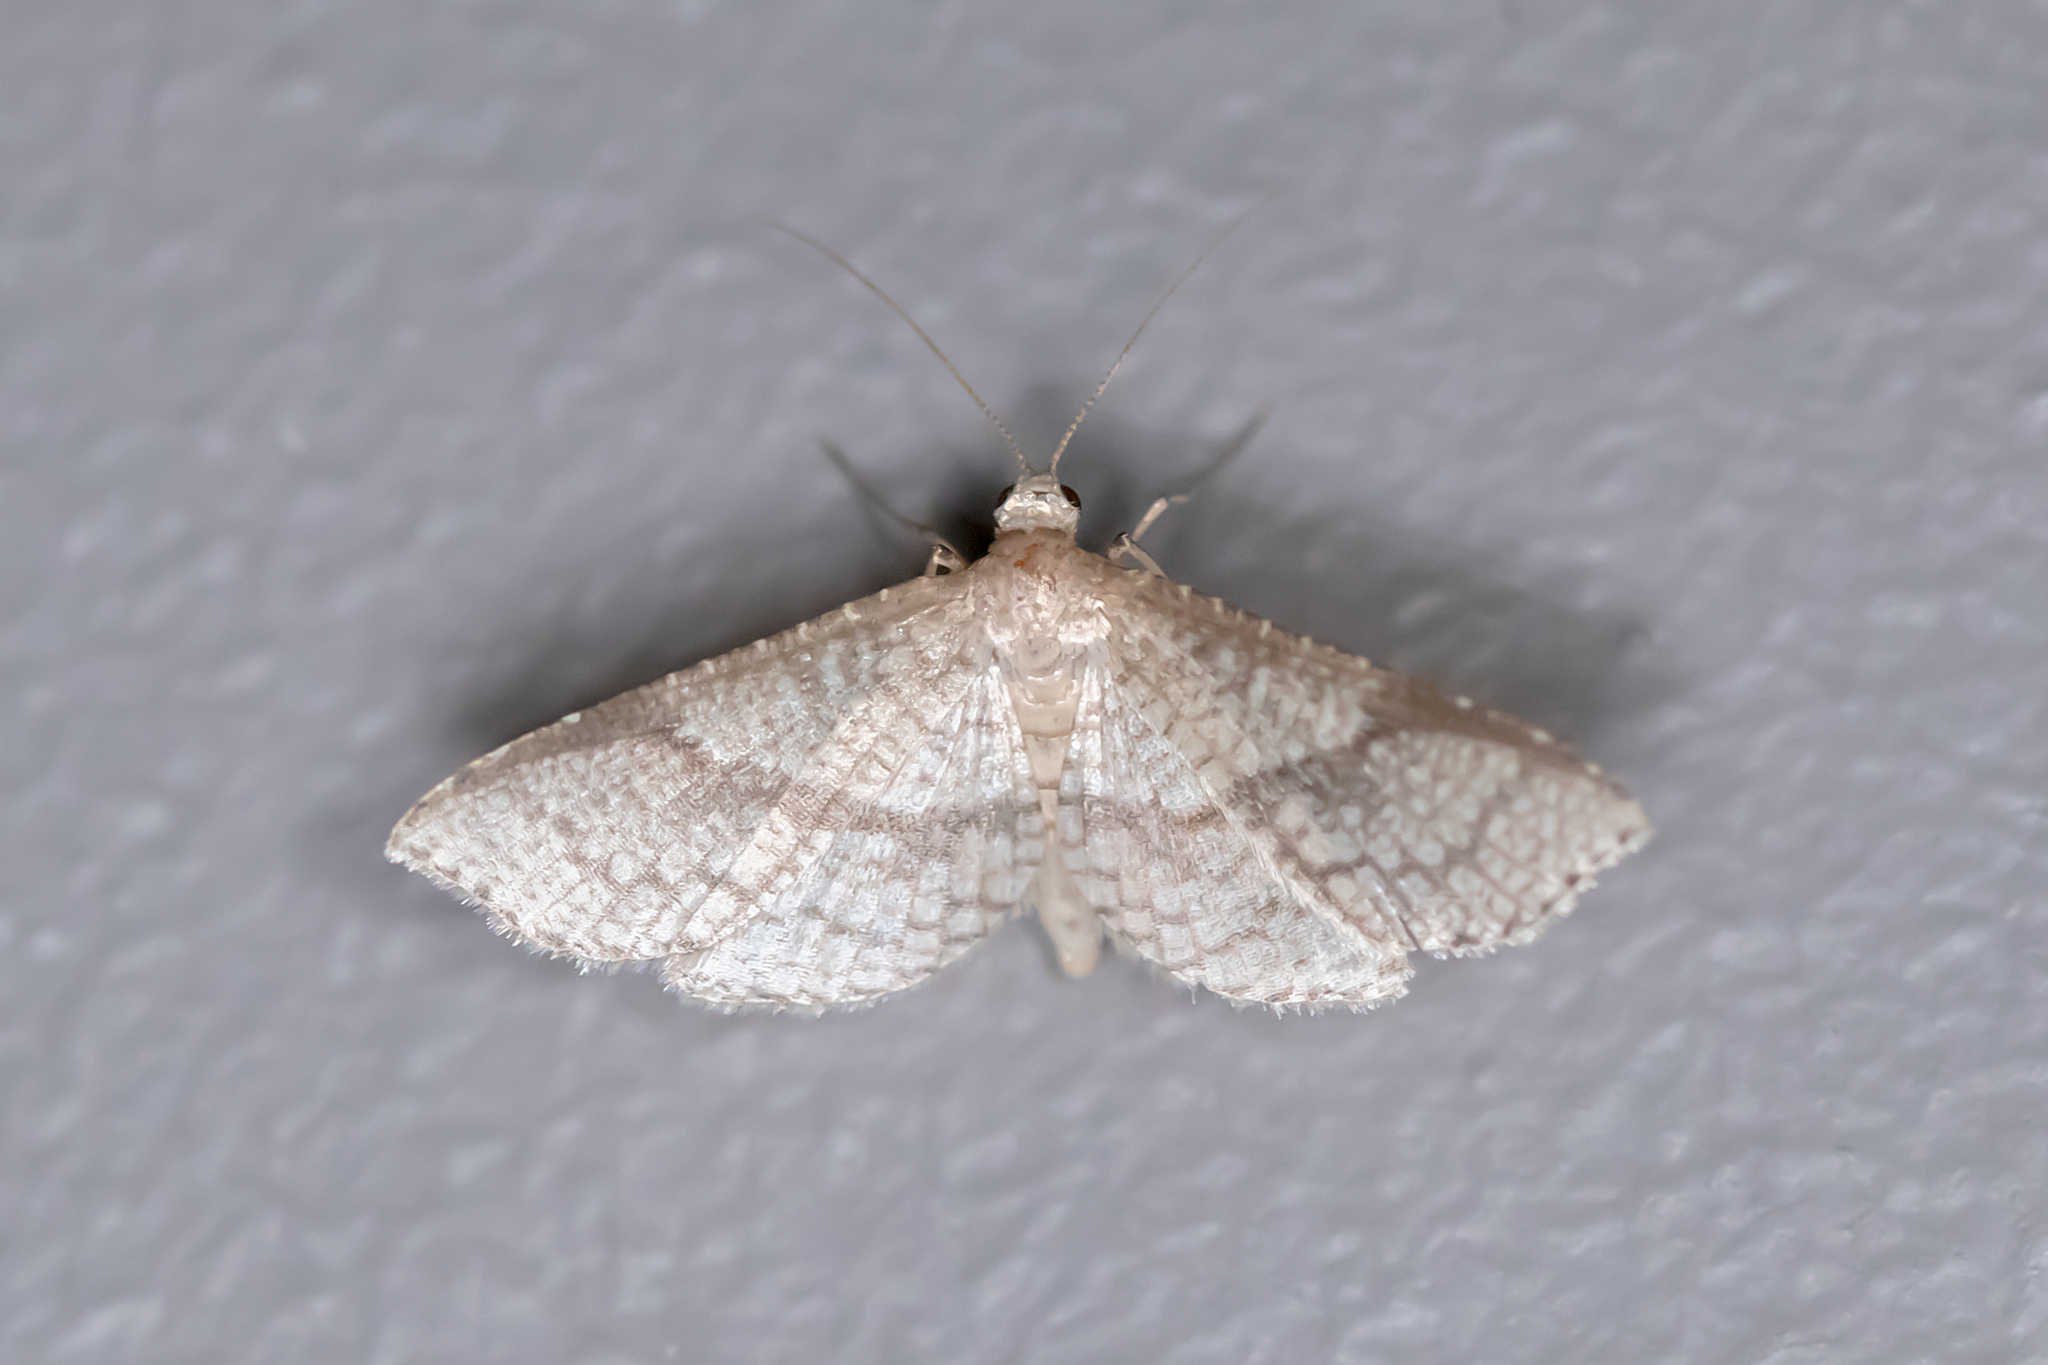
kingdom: Animalia
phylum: Arthropoda
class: Insecta
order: Lepidoptera
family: Thyrididae
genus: Addaea
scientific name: Addaea subtessellata
